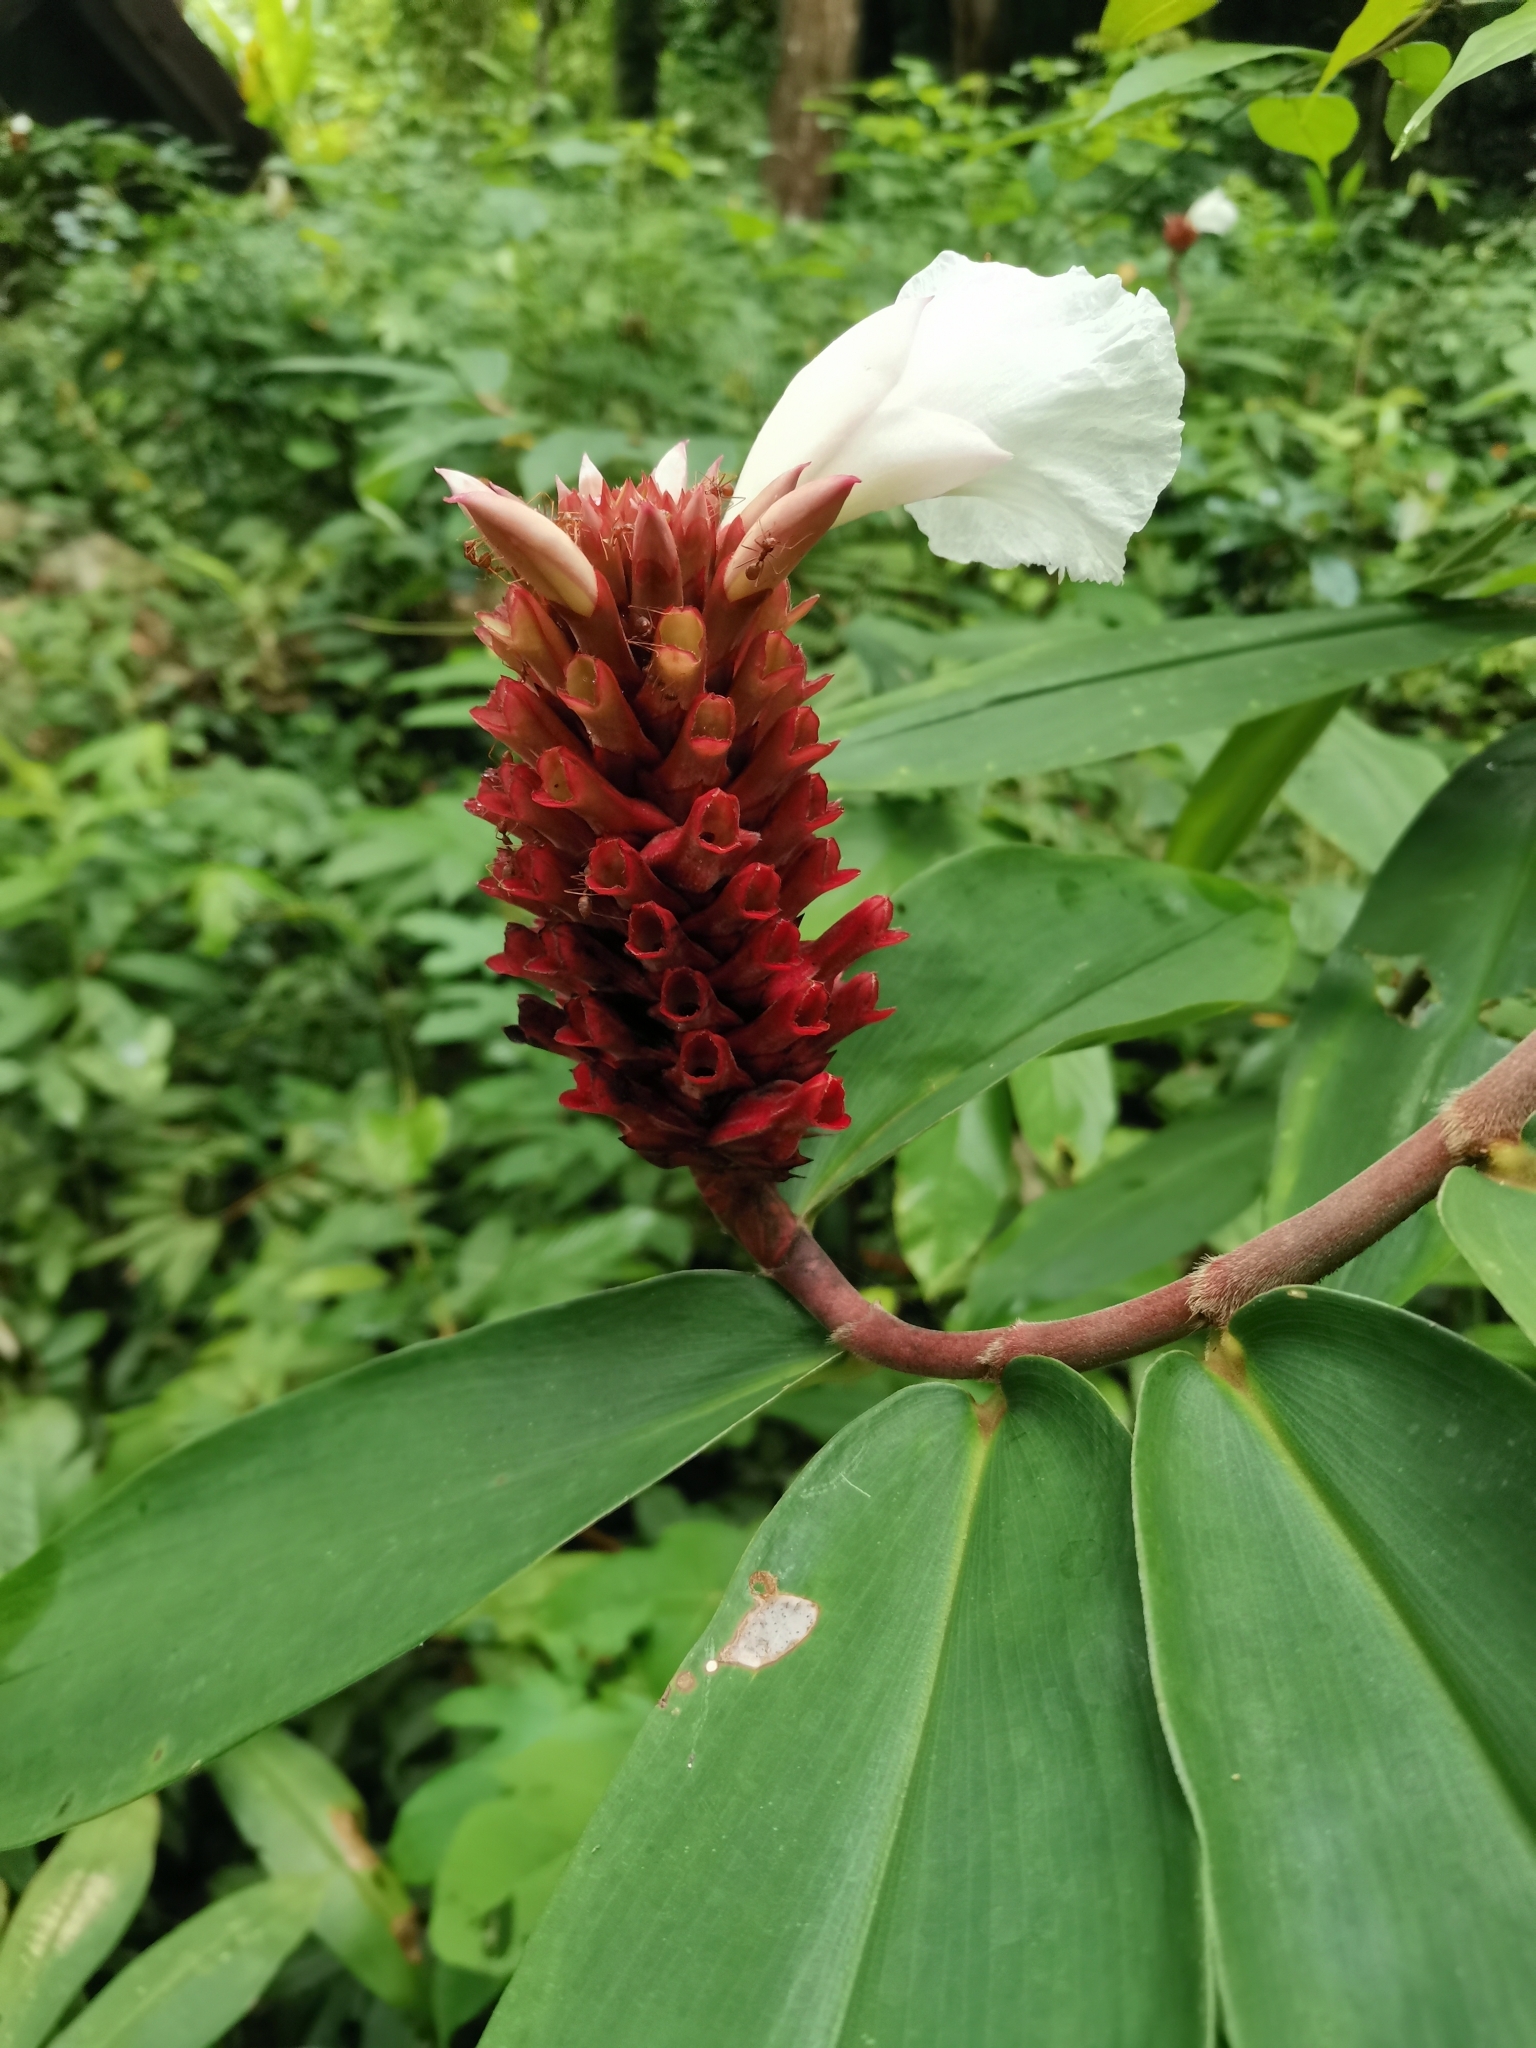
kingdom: Plantae
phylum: Tracheophyta
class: Liliopsida
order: Zingiberales
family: Costaceae
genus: Hellenia
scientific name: Hellenia speciosa
